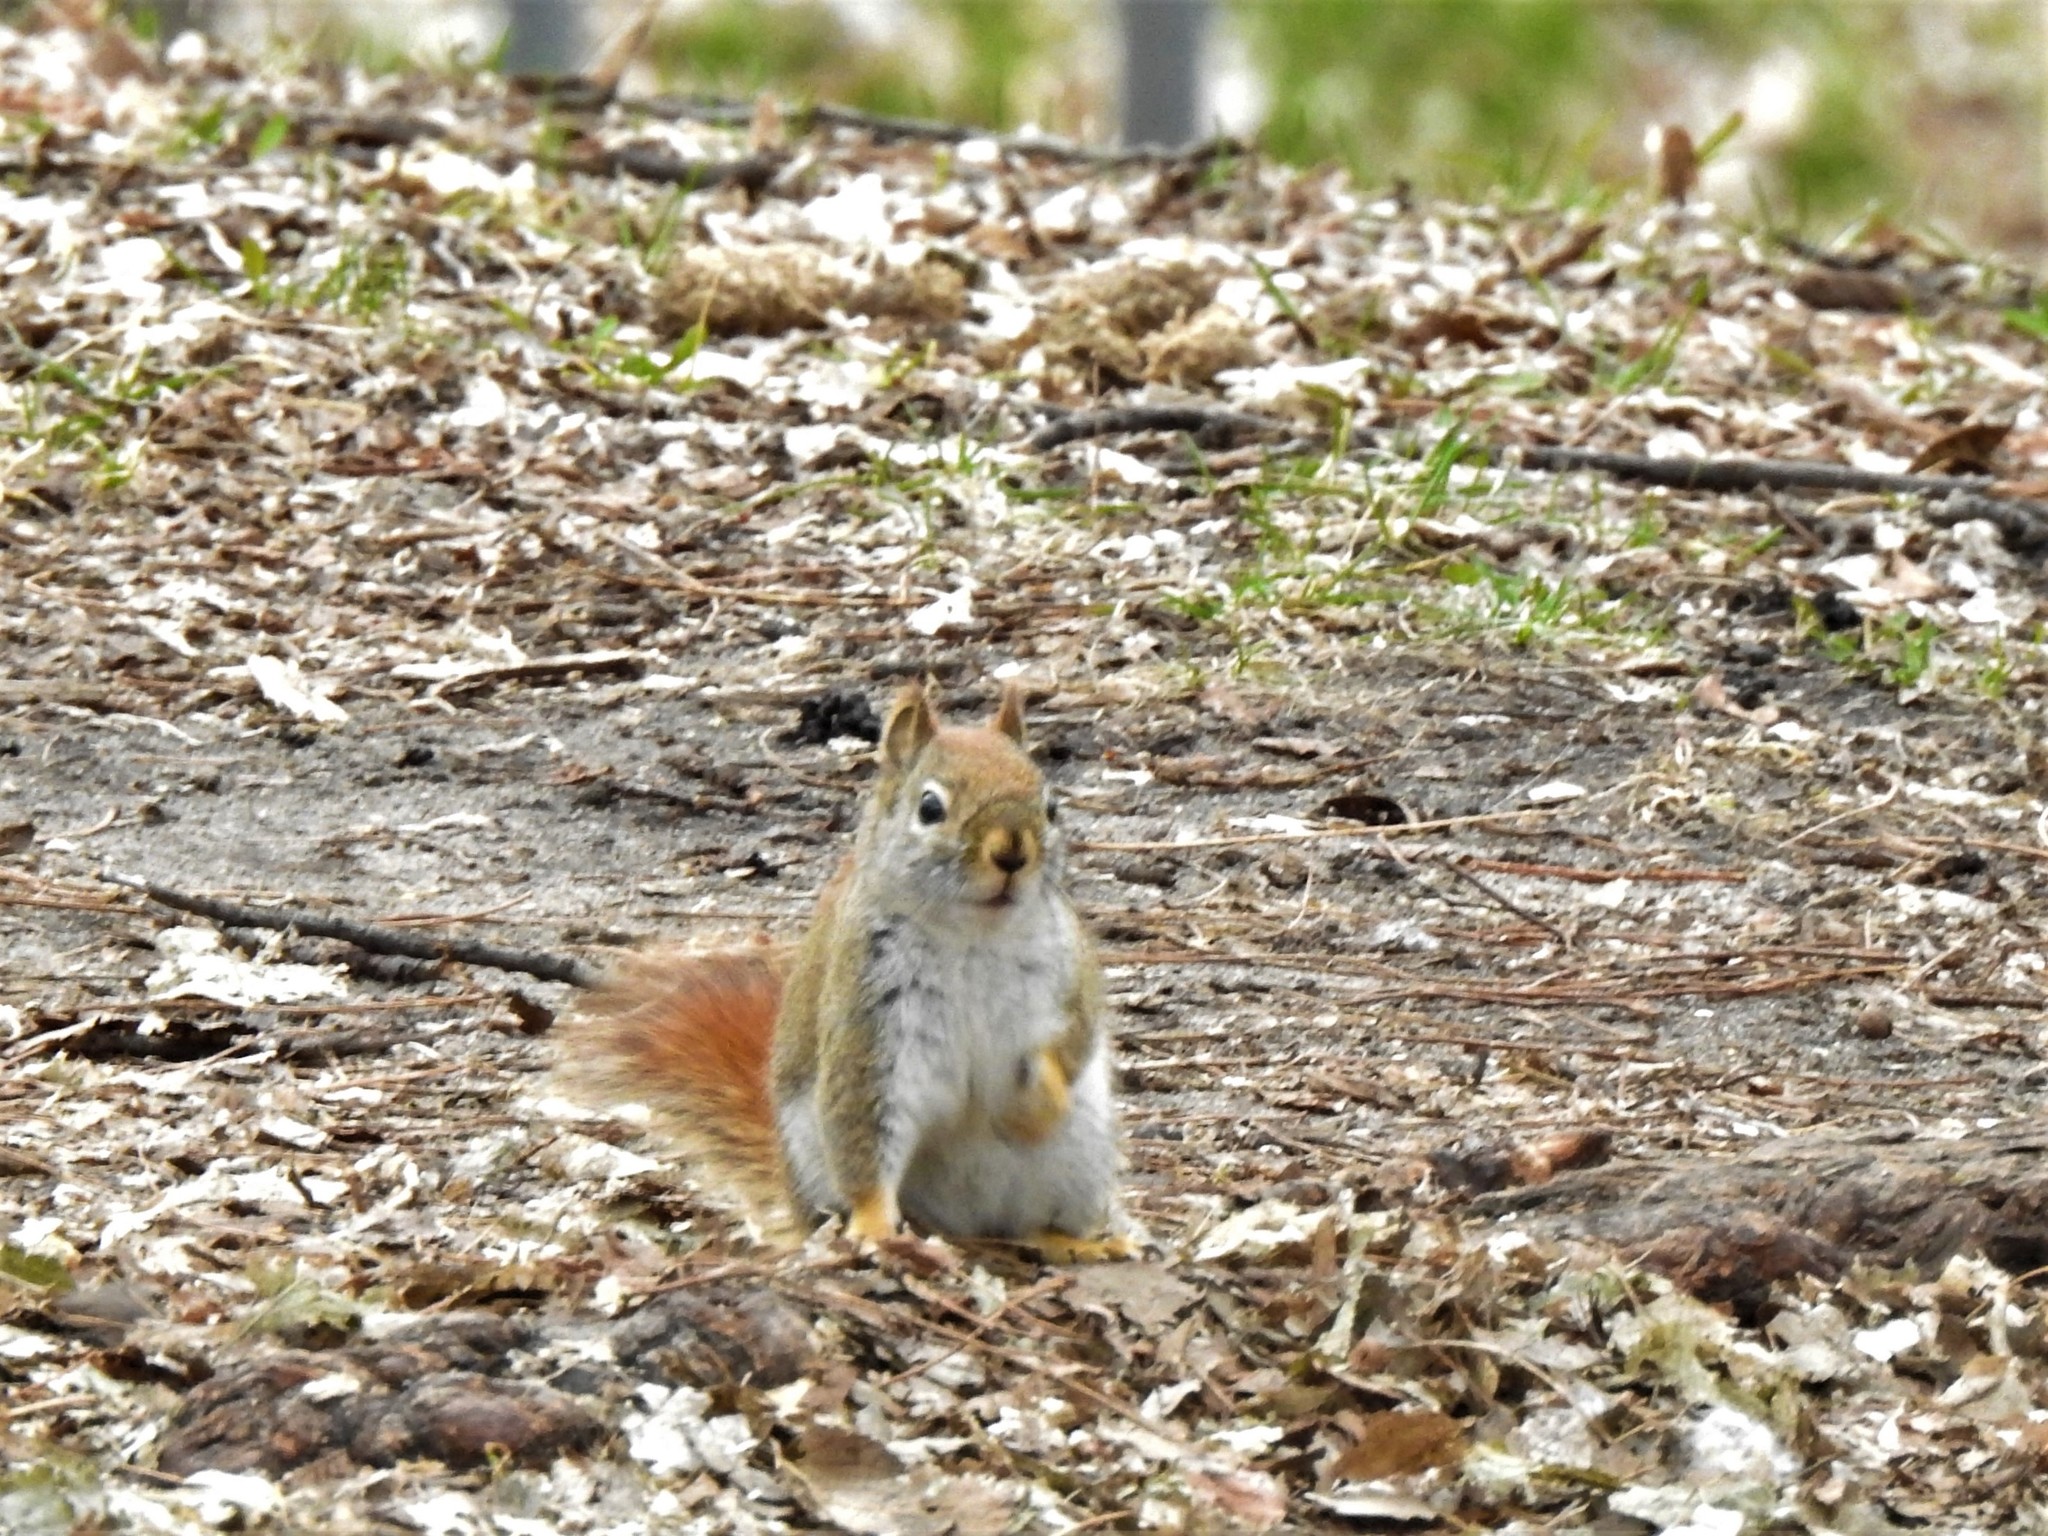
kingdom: Animalia
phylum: Chordata
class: Mammalia
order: Rodentia
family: Sciuridae
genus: Tamiasciurus
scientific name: Tamiasciurus hudsonicus
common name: Red squirrel
